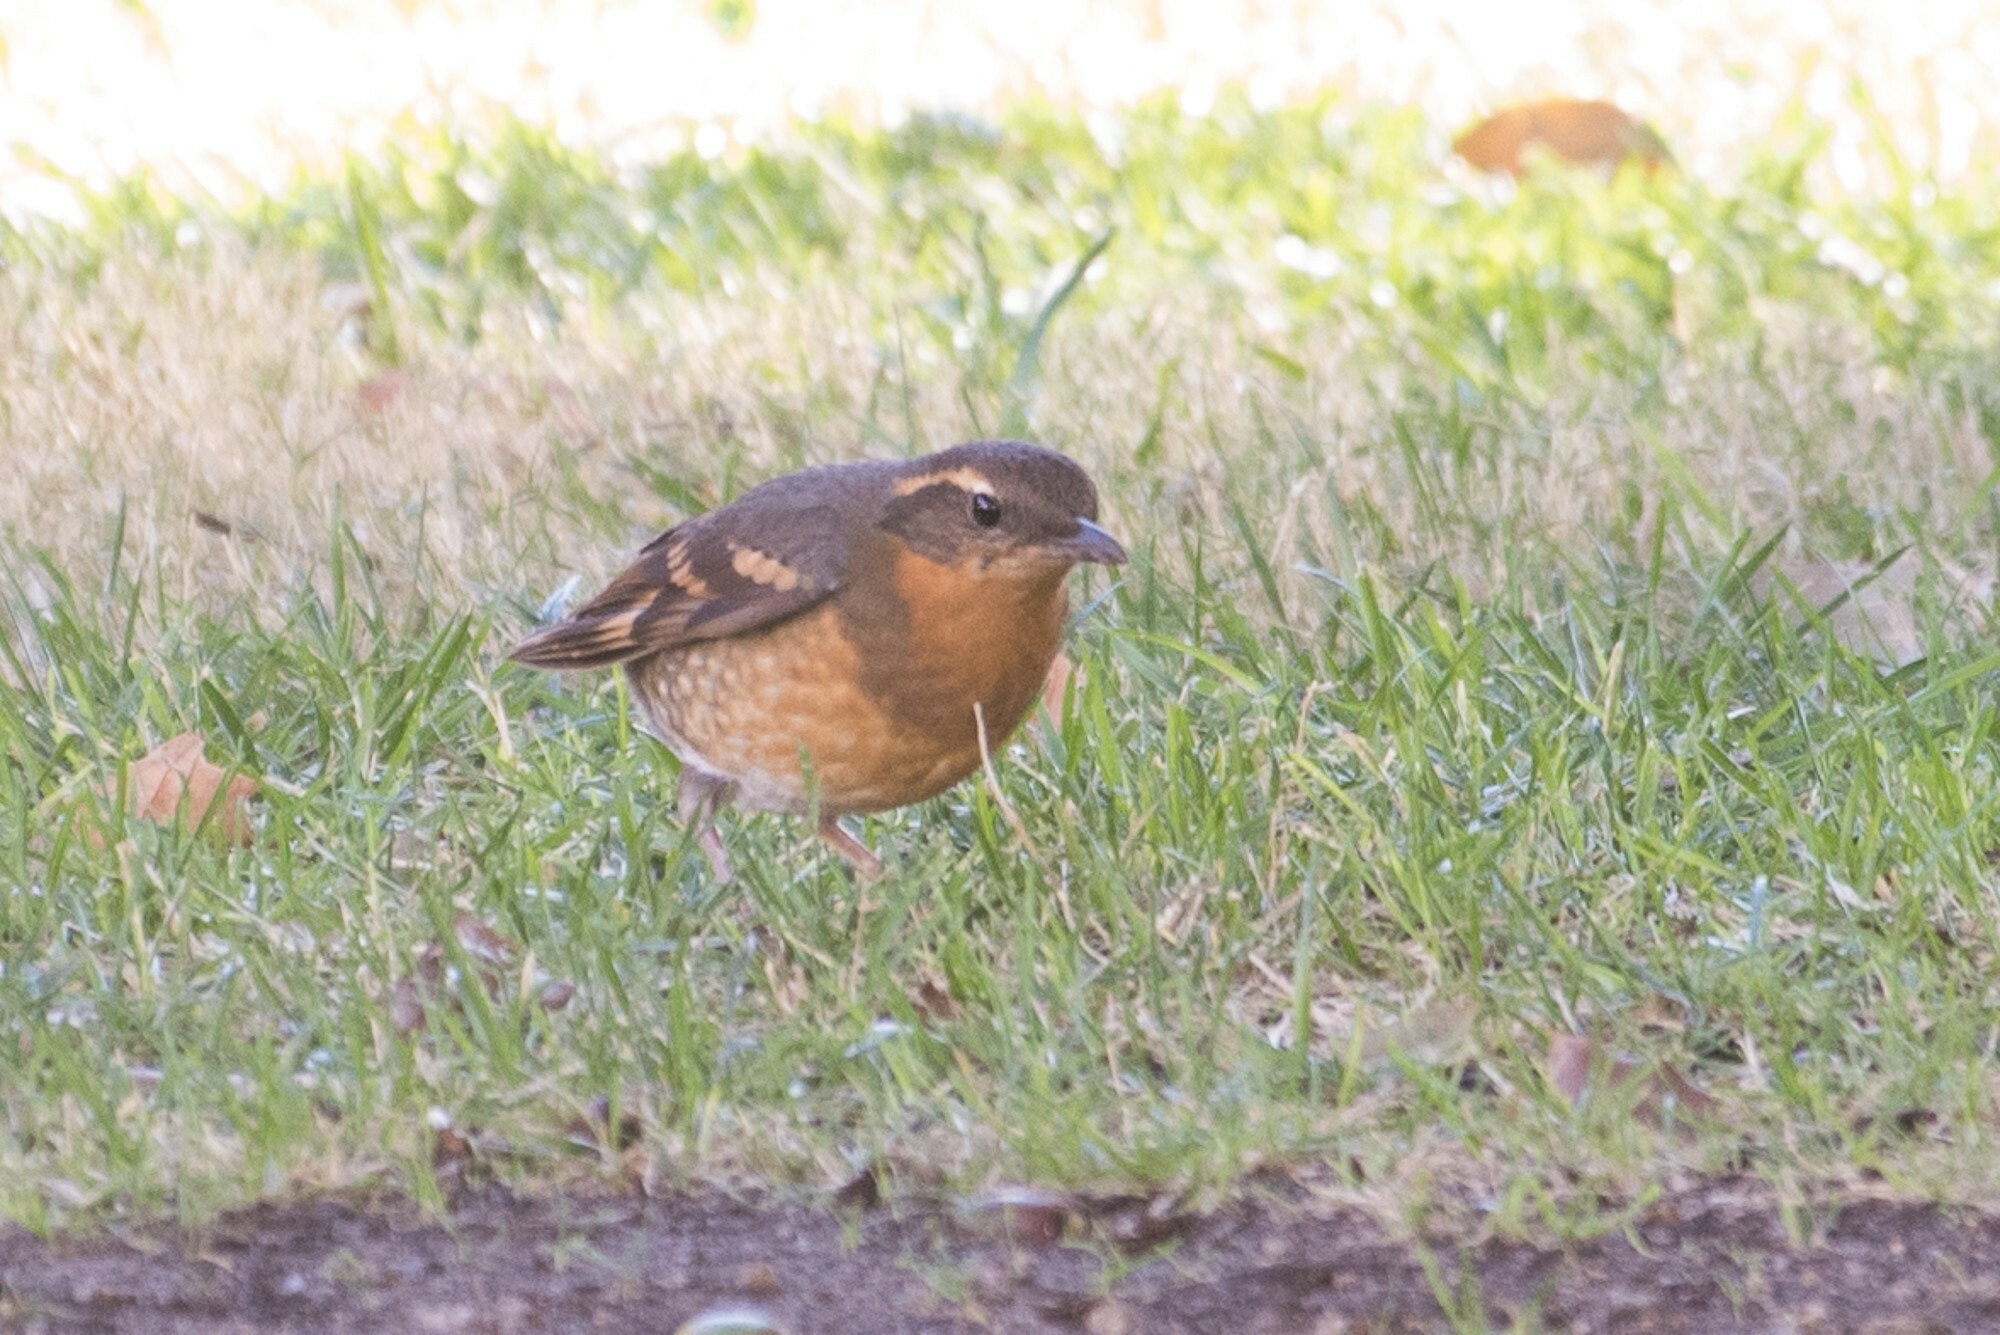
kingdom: Animalia
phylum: Chordata
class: Aves
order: Passeriformes
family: Turdidae
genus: Ixoreus
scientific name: Ixoreus naevius
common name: Varied thrush
